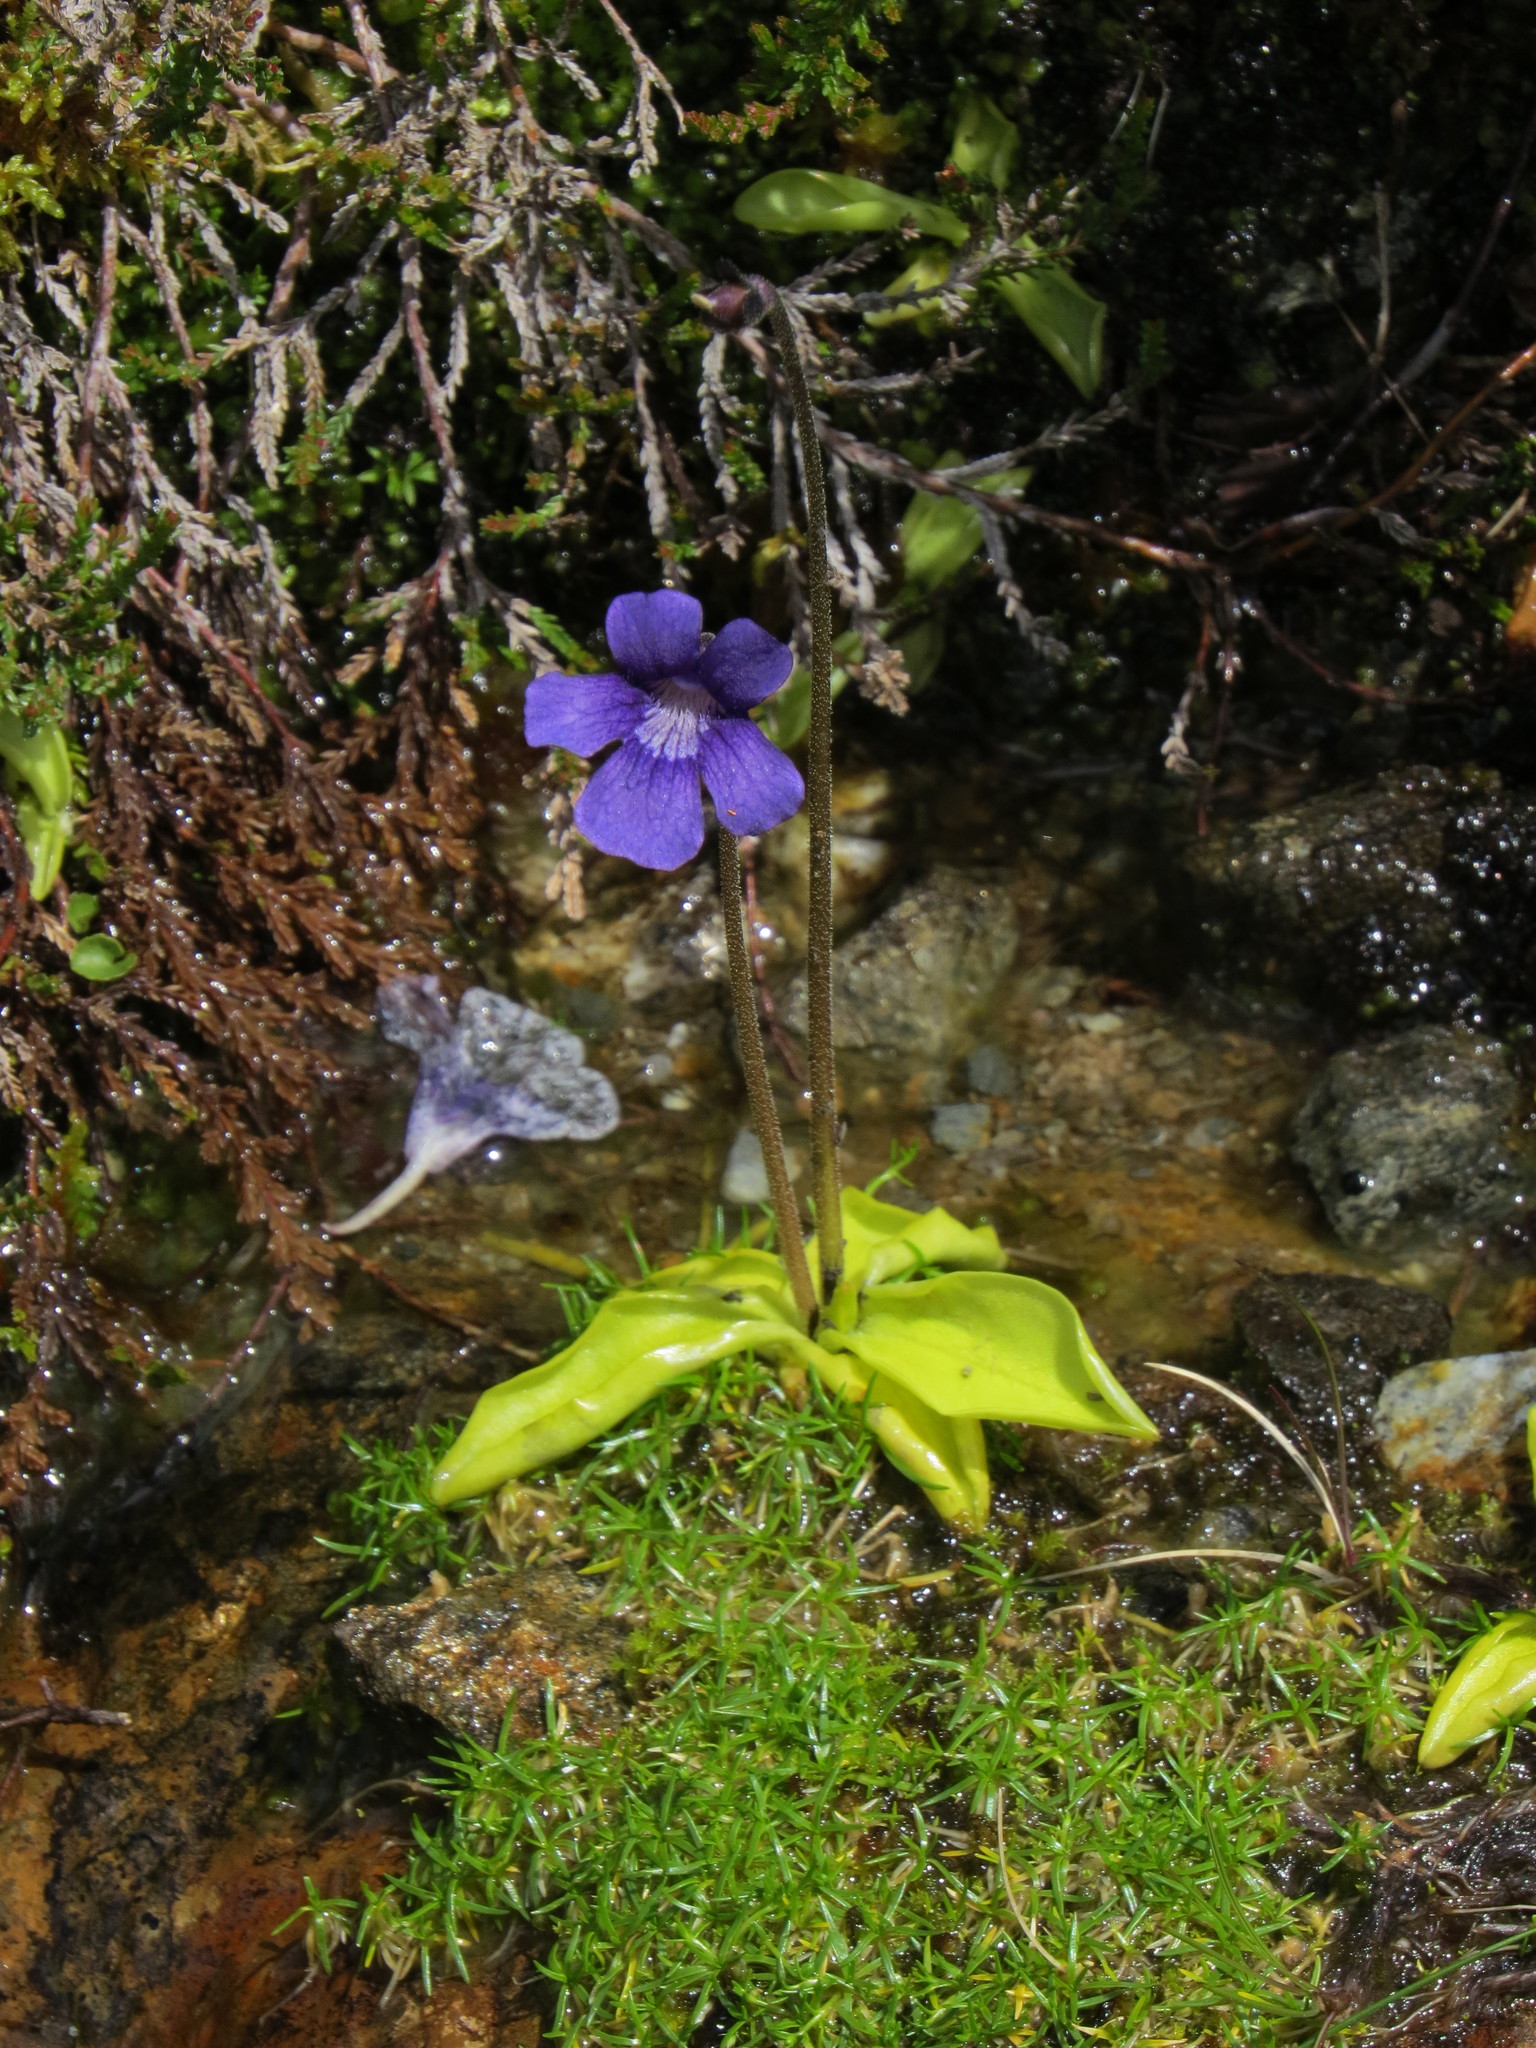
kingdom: Plantae
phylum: Tracheophyta
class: Magnoliopsida
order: Lamiales
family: Lentibulariaceae
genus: Pinguicula
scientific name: Pinguicula grandiflora
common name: Large-flowered butterwort
